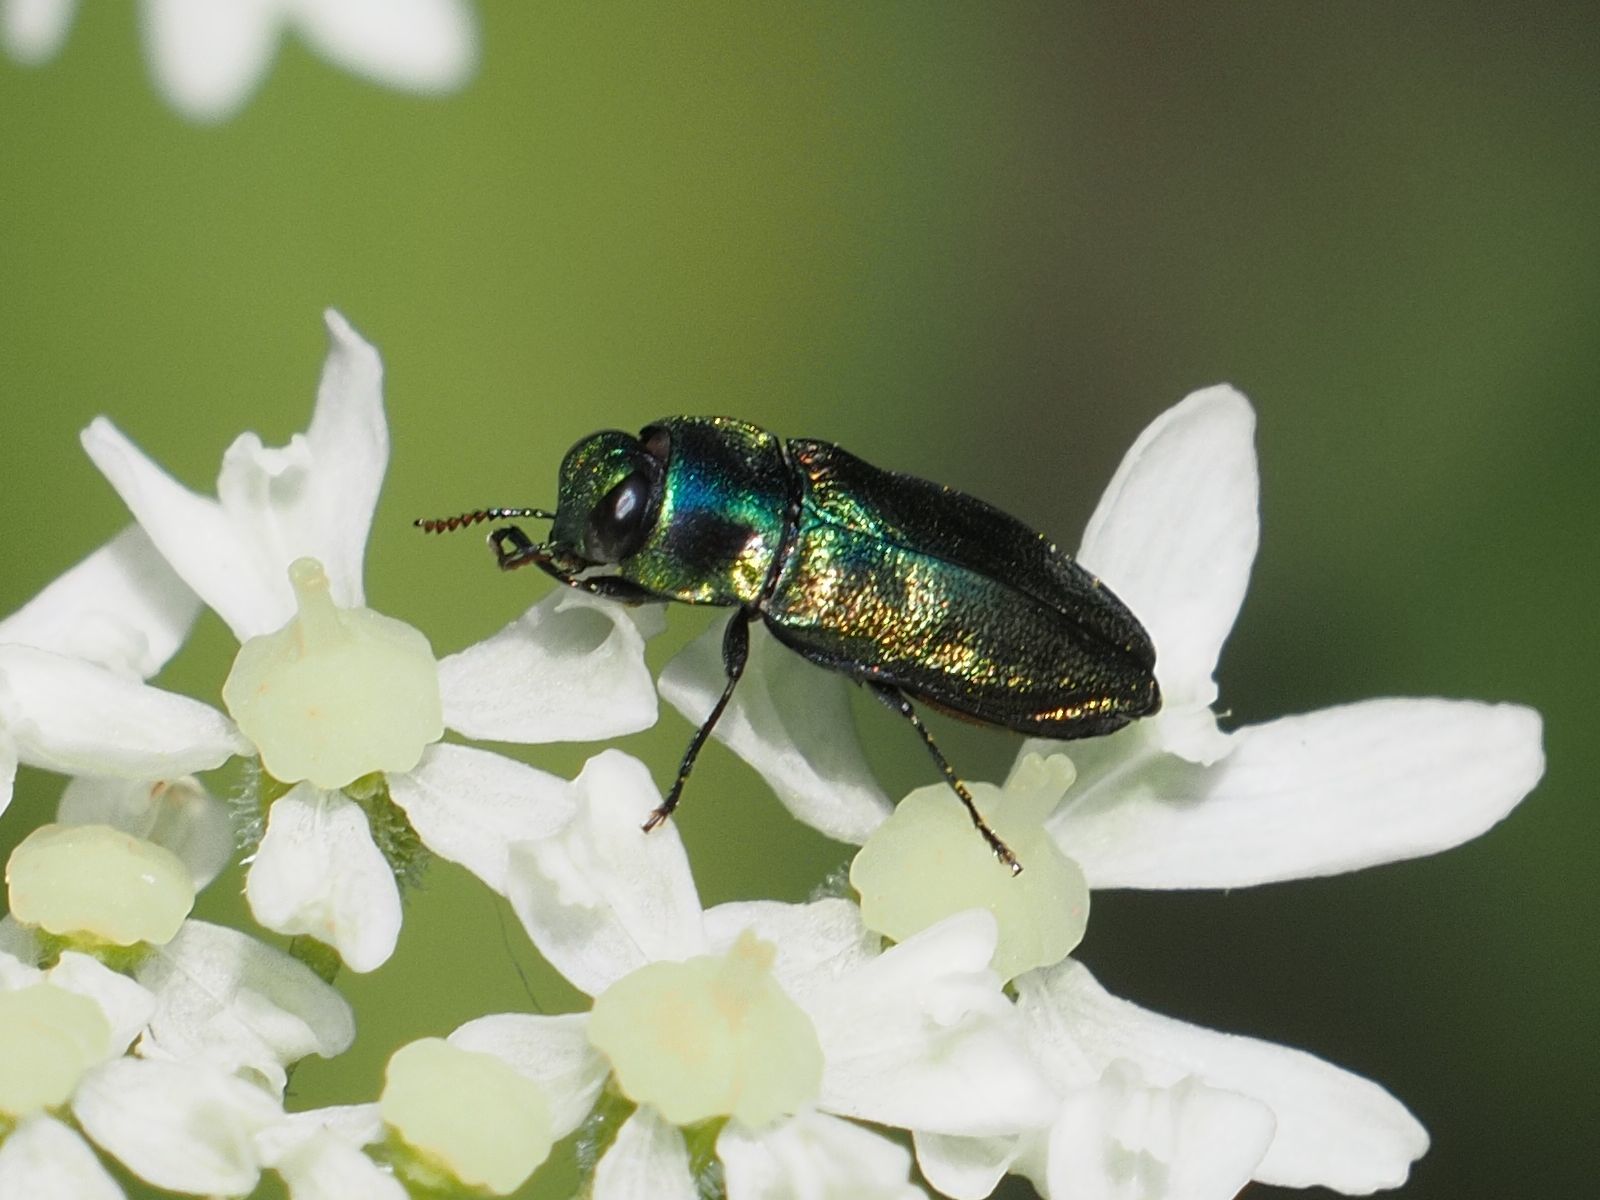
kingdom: Animalia
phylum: Arthropoda
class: Insecta
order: Coleoptera
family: Buprestidae
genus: Anthaxia
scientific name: Anthaxia podolica
